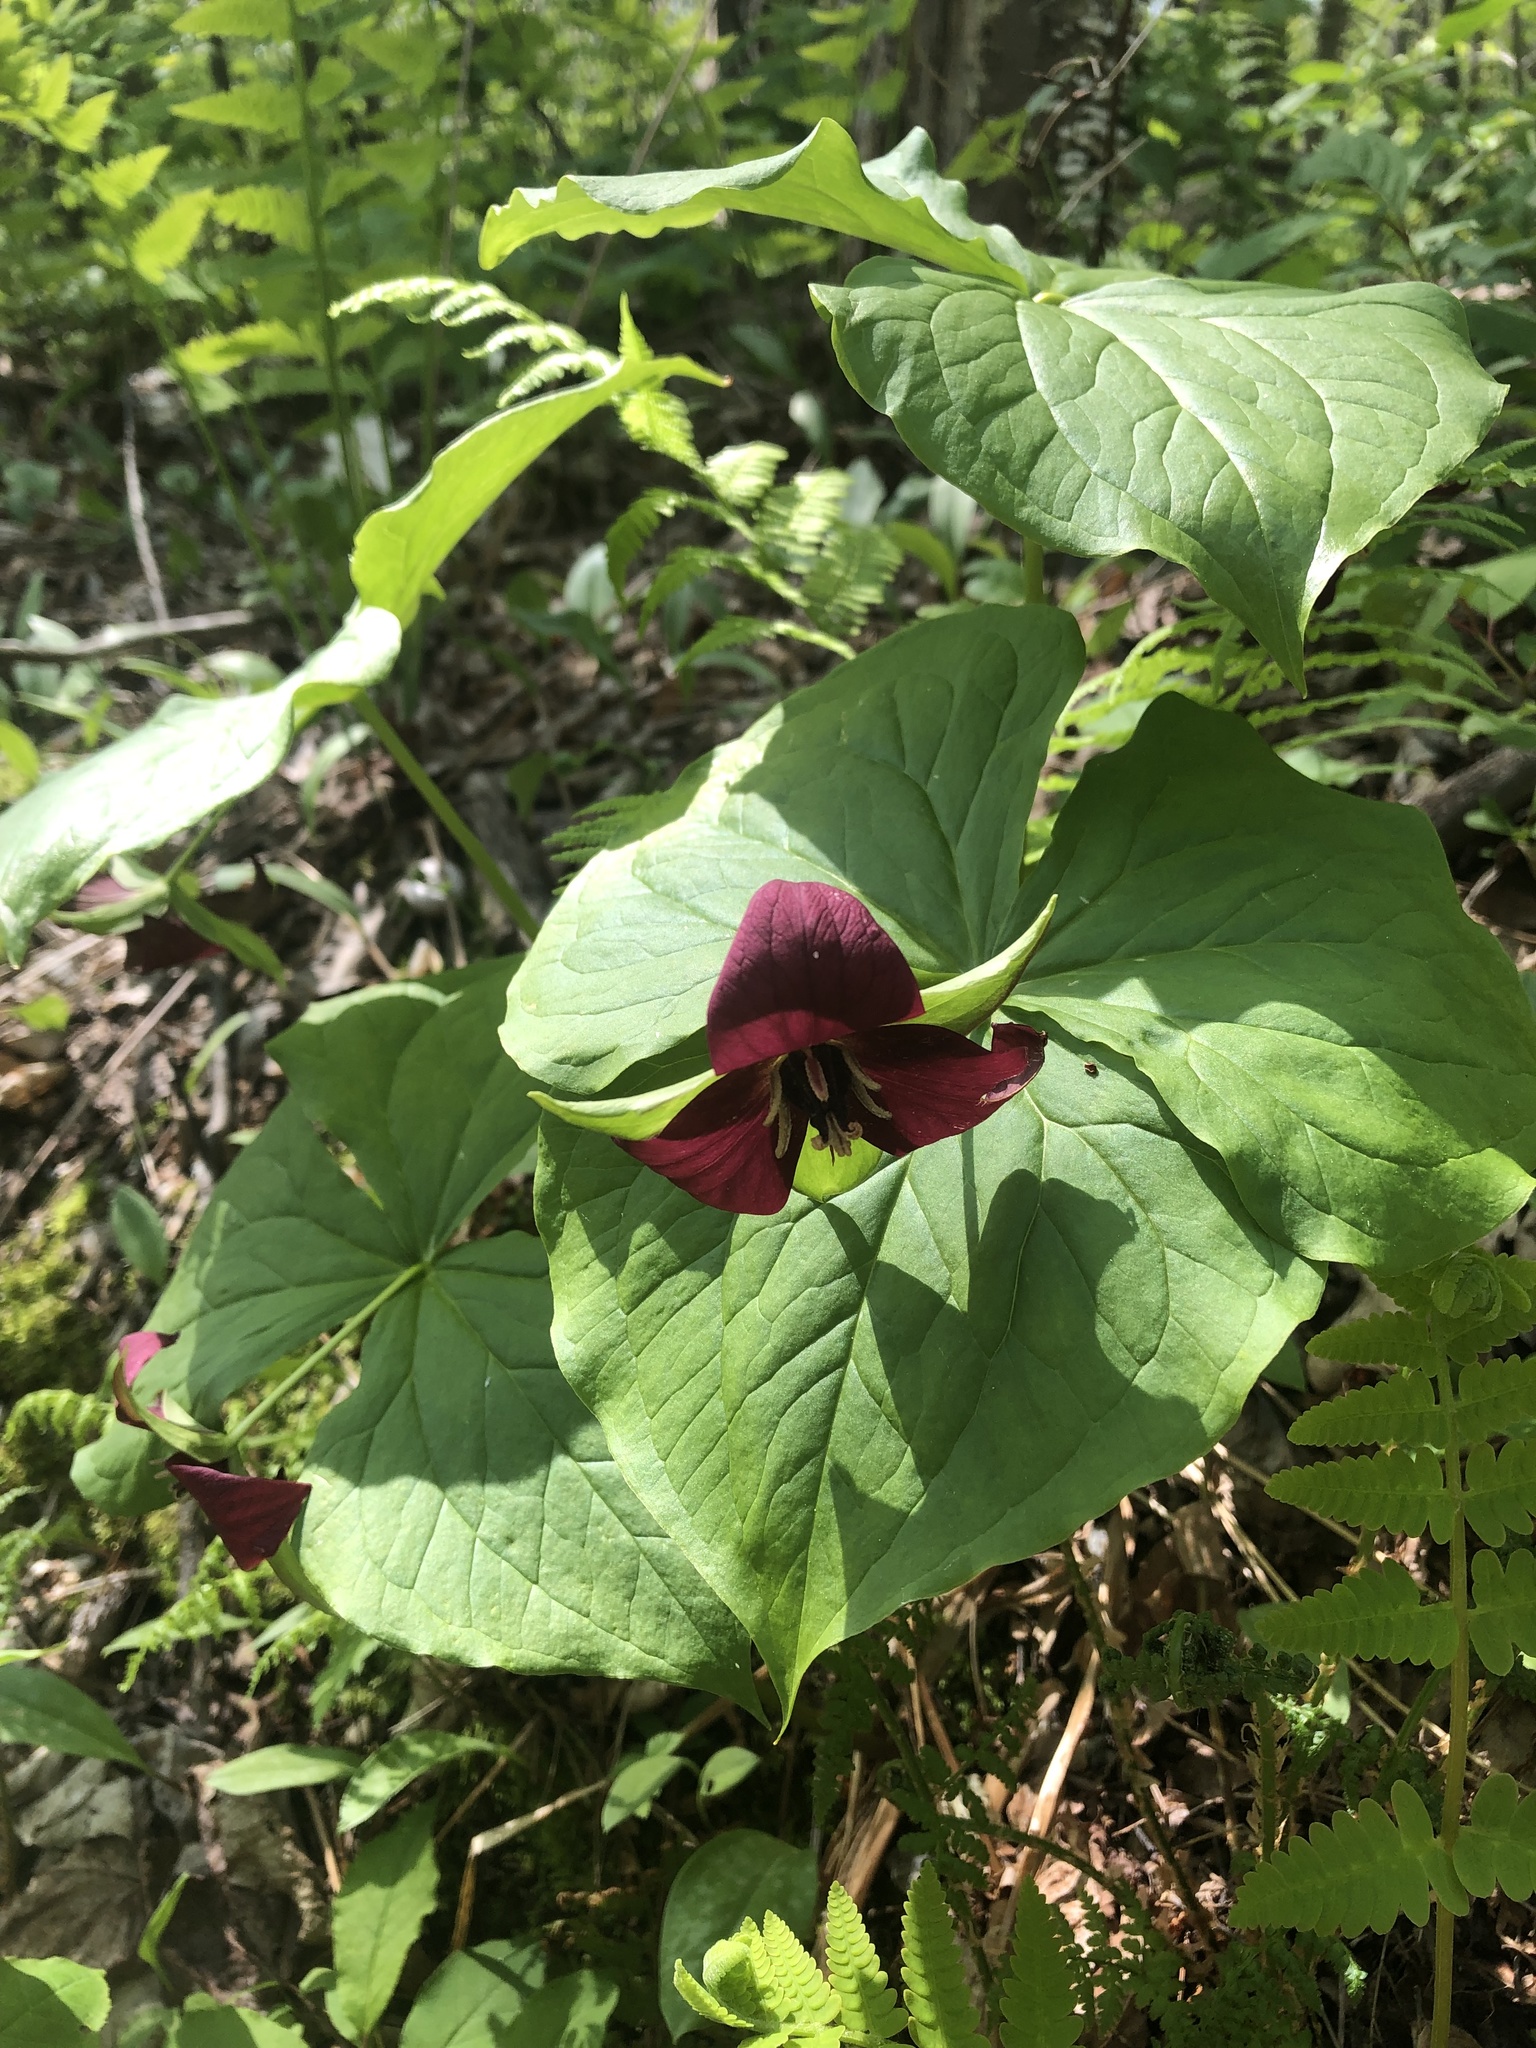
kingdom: Plantae
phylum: Tracheophyta
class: Liliopsida
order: Liliales
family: Melanthiaceae
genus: Trillium
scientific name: Trillium erectum
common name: Purple trillium
